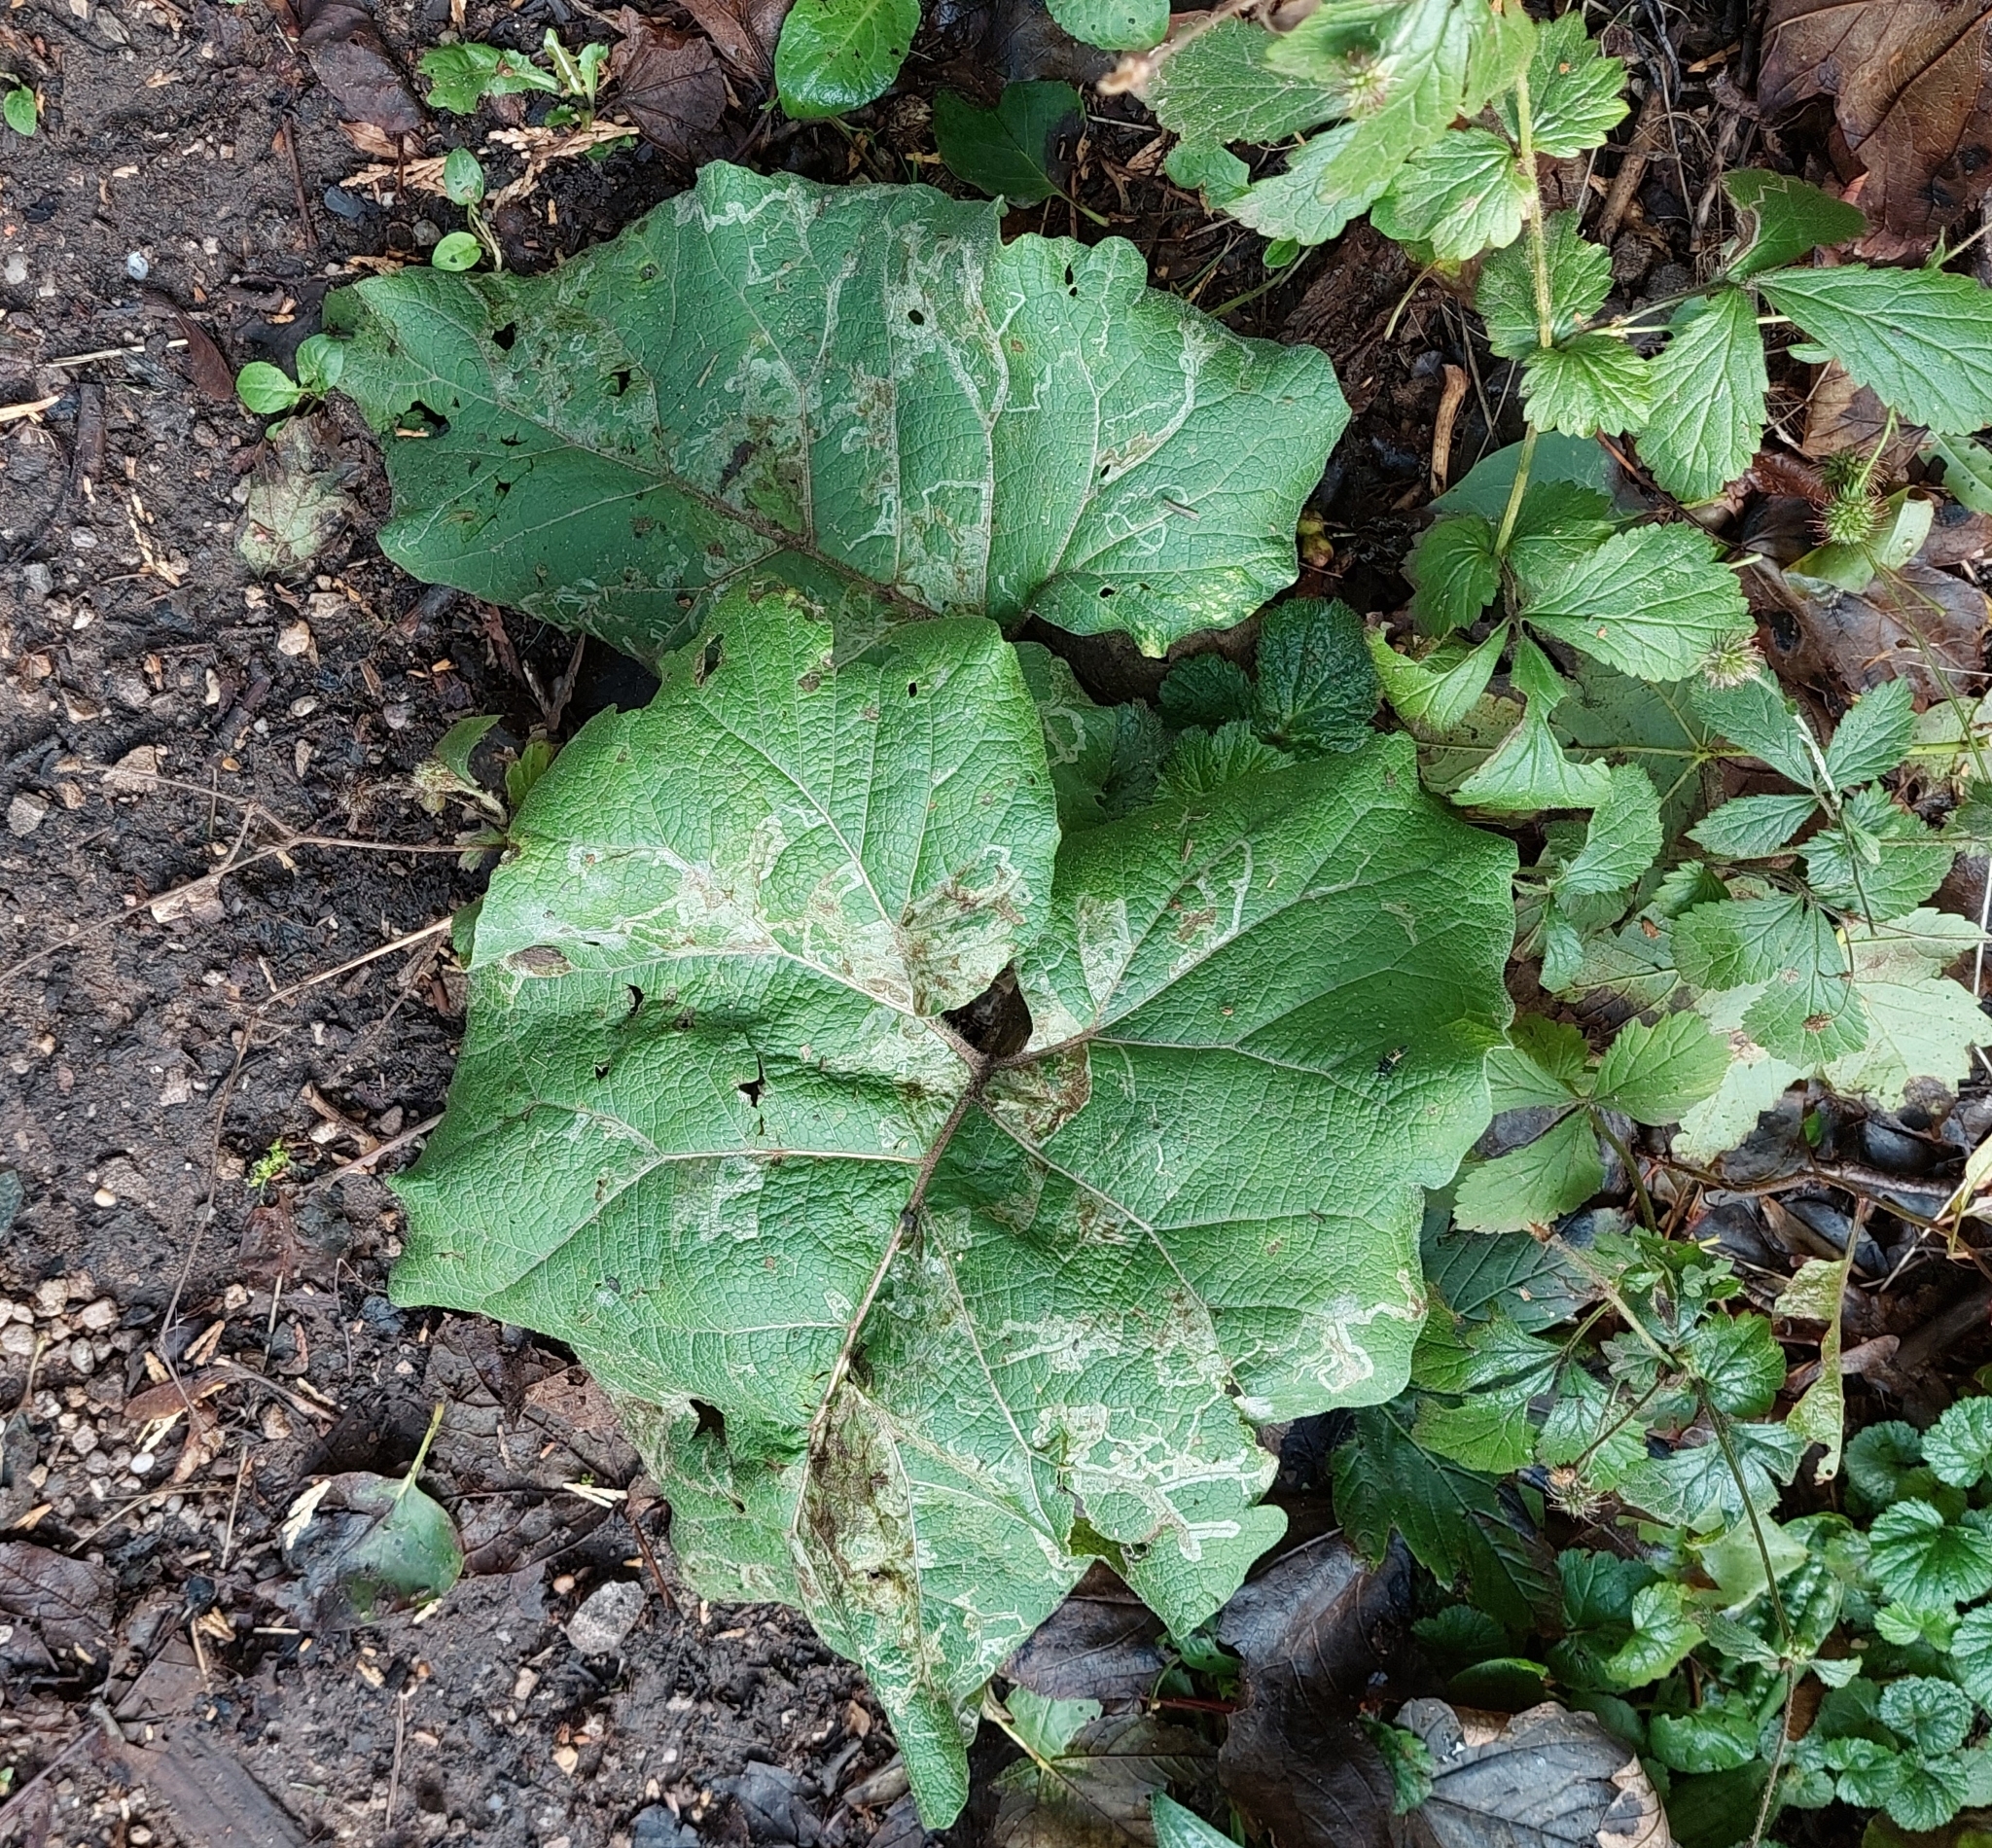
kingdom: Plantae
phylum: Tracheophyta
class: Magnoliopsida
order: Asterales
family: Asteraceae
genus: Arctium
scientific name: Arctium
